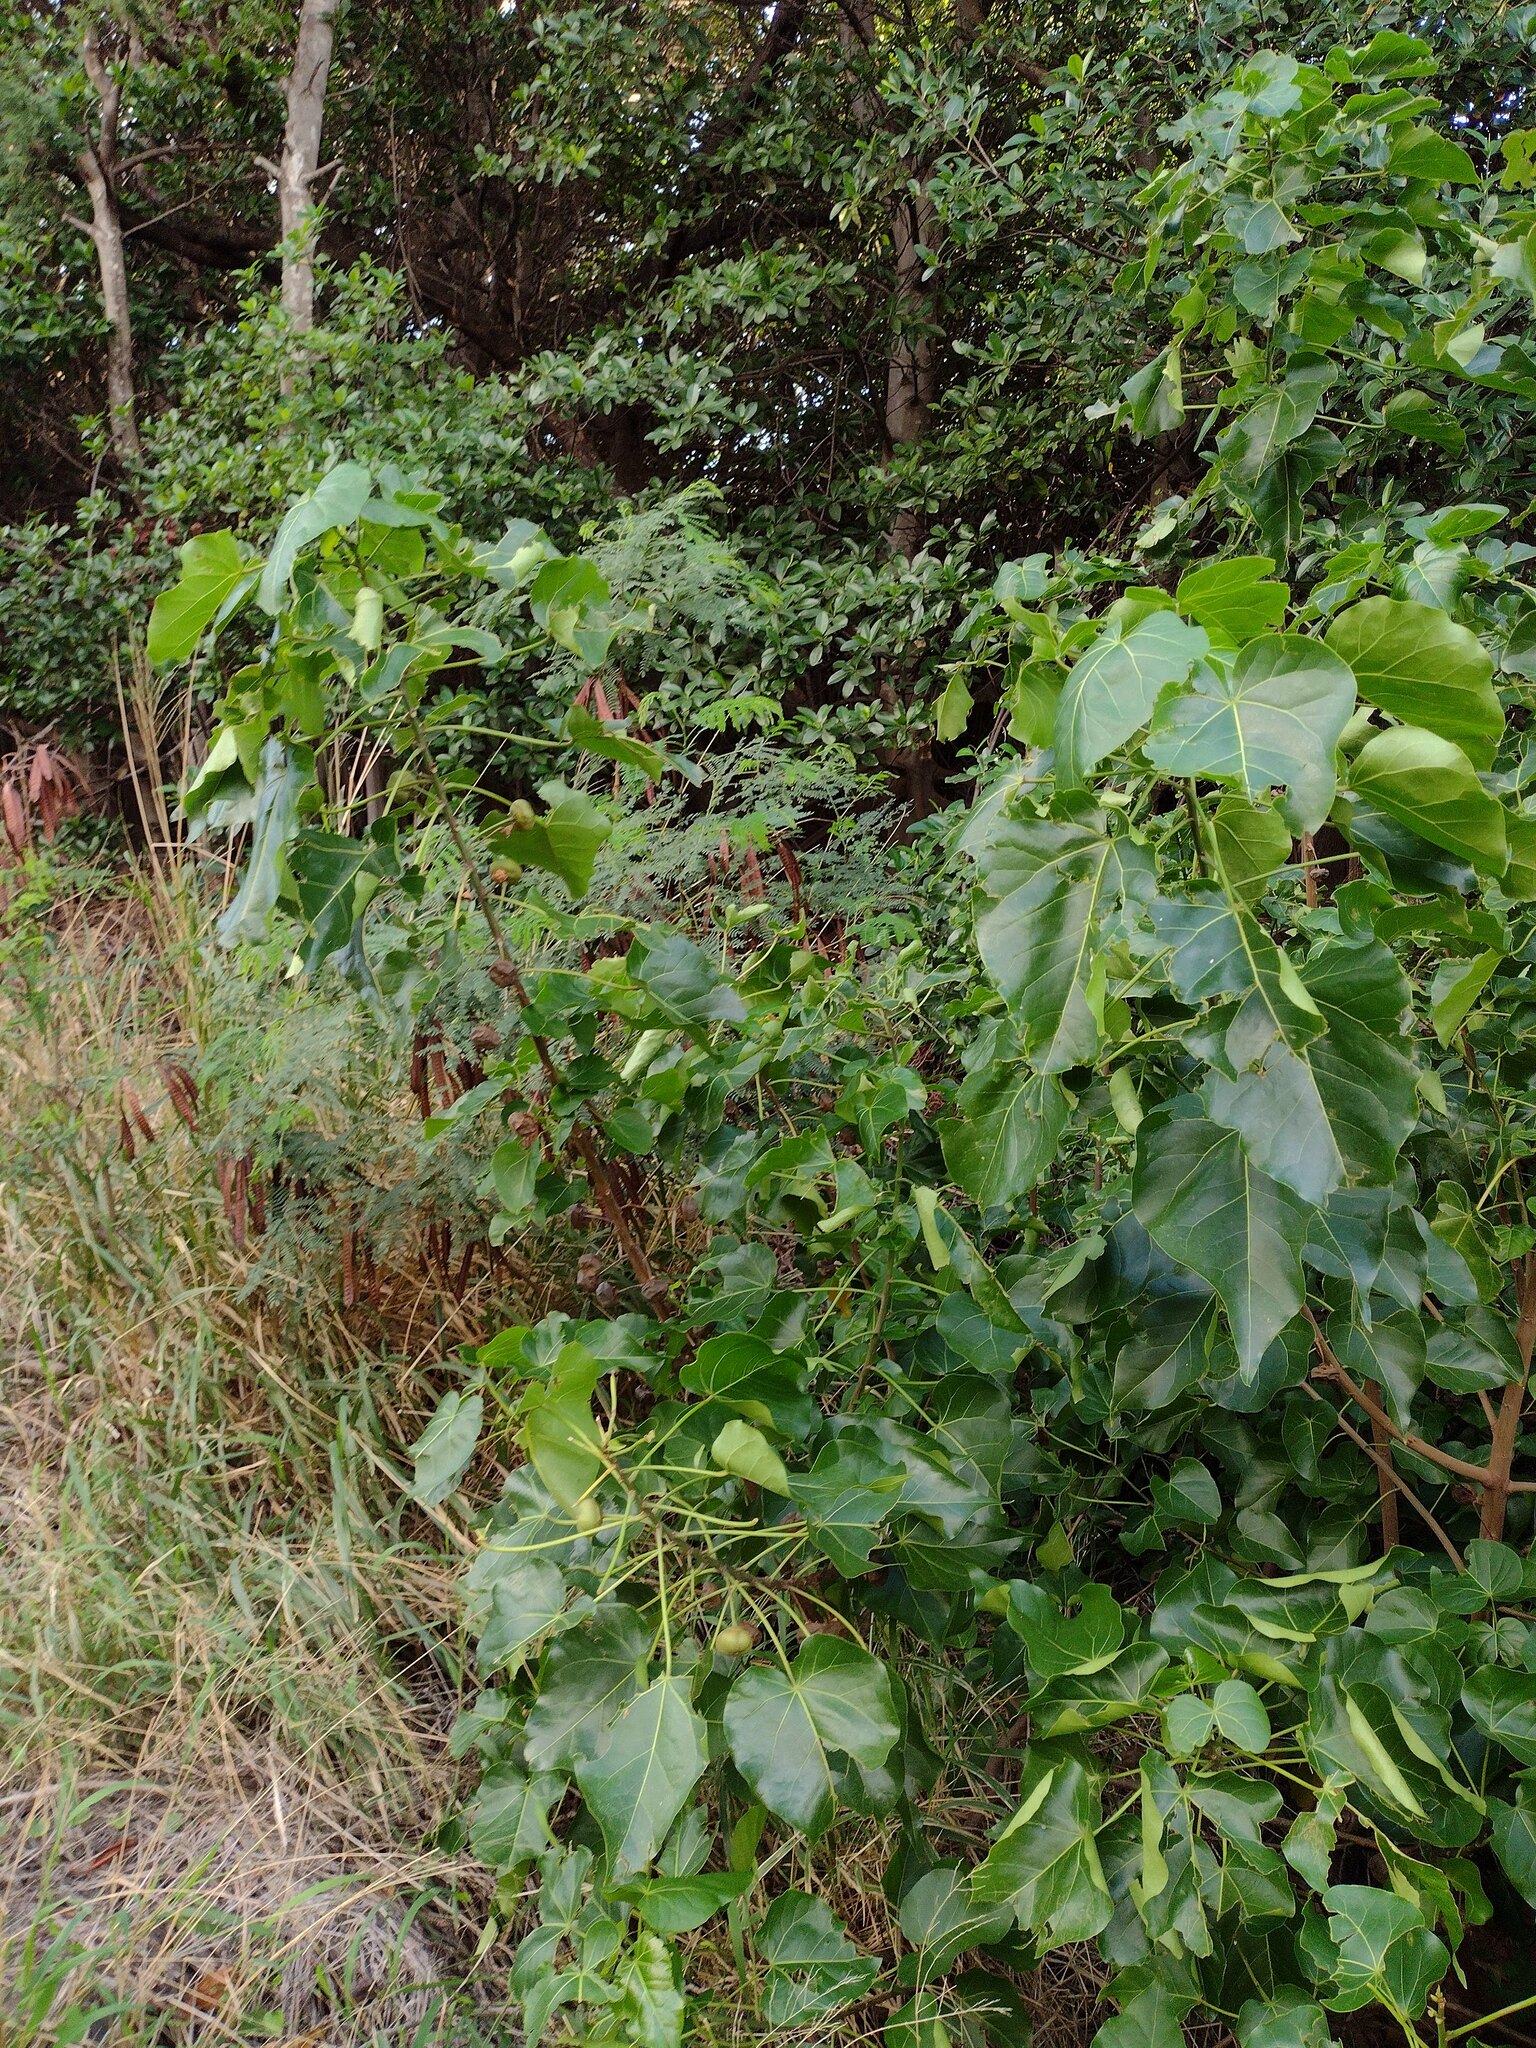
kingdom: Plantae
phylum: Tracheophyta
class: Magnoliopsida
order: Malvales
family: Malvaceae
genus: Thespesia
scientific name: Thespesia populnea
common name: Seaside mahoe
